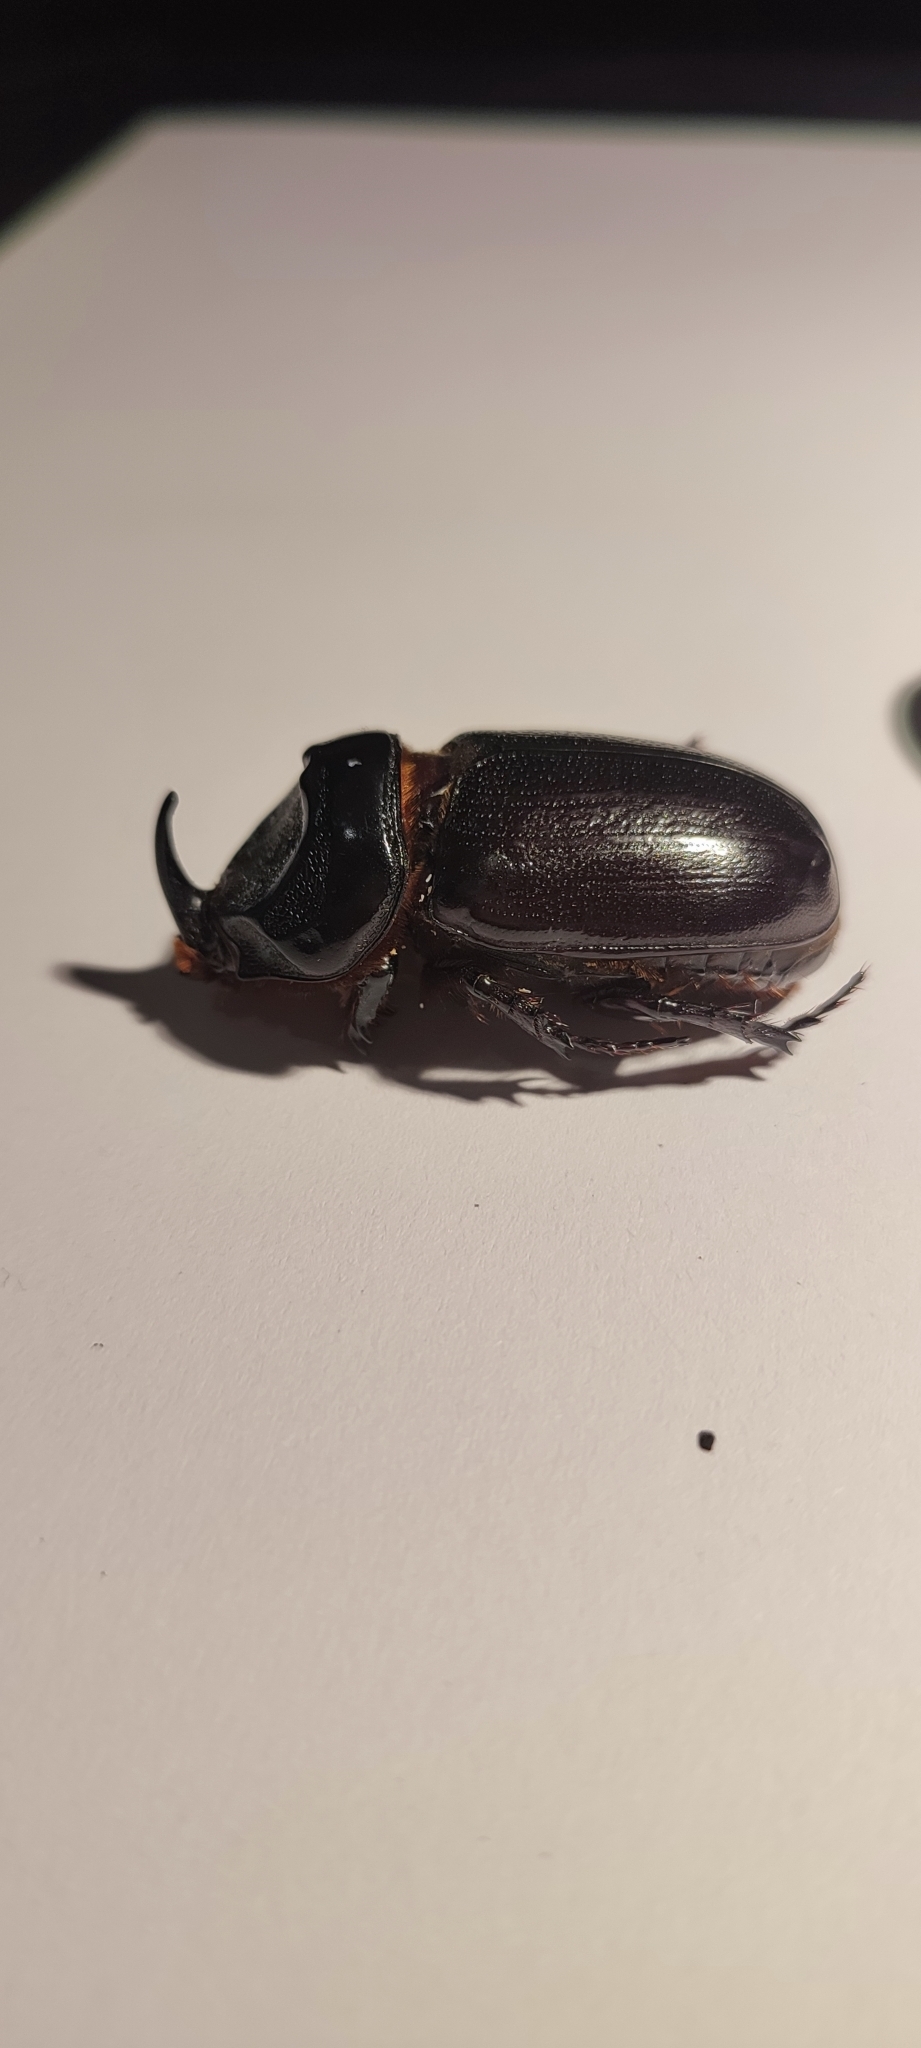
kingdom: Animalia
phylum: Arthropoda
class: Insecta
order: Coleoptera
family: Scarabaeidae
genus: Oryctes
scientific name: Oryctes rhinoceros
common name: Coconut rhinoceros beetle
